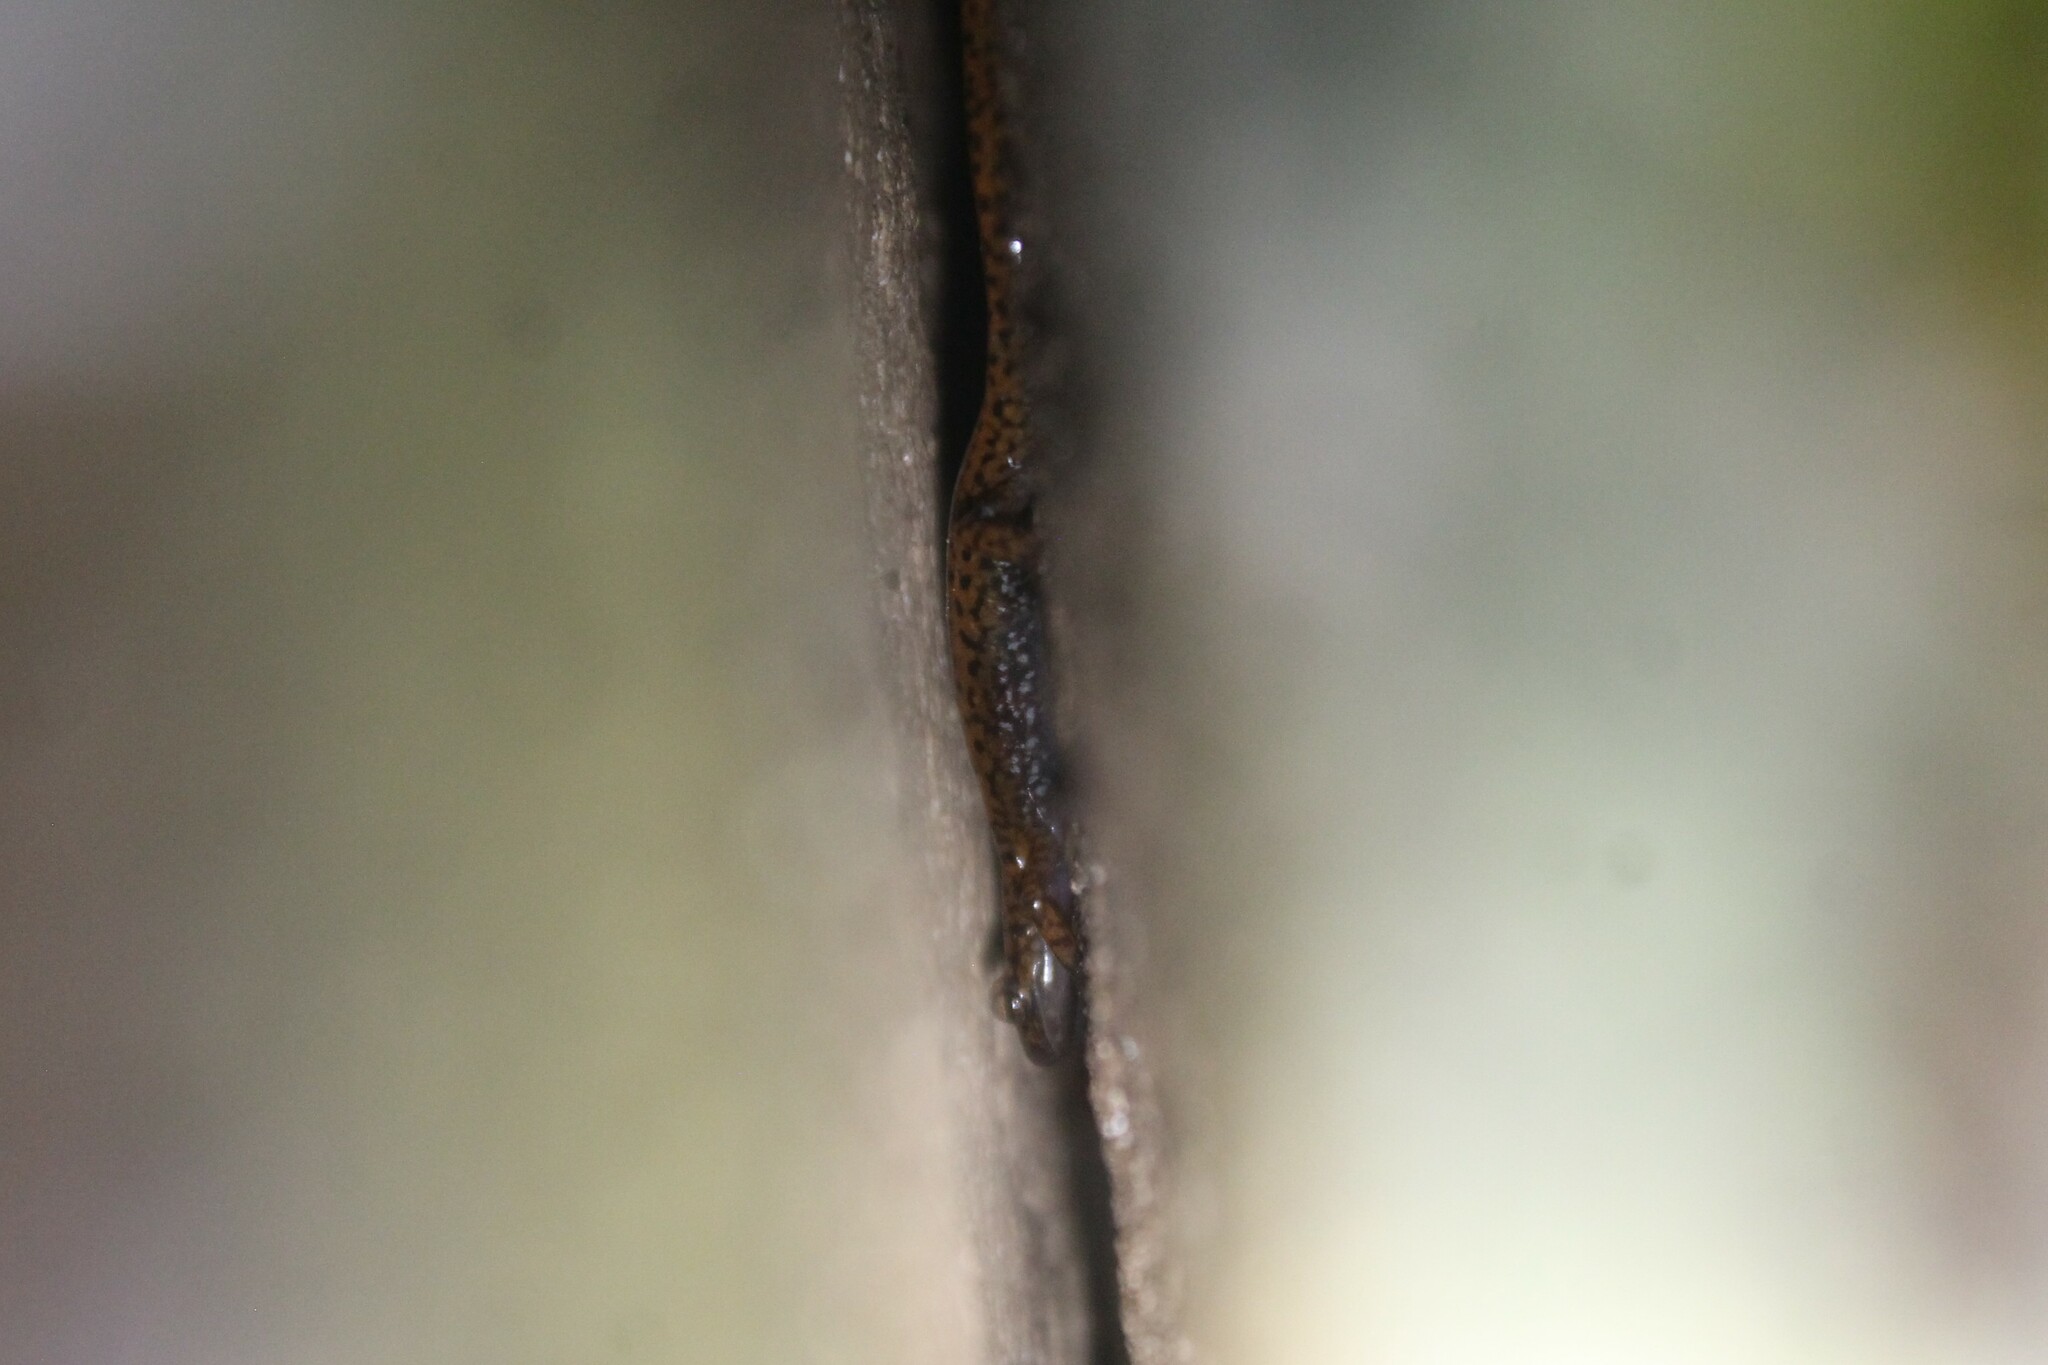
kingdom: Animalia
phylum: Chordata
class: Amphibia
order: Caudata
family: Plethodontidae
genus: Eurycea
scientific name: Eurycea lucifuga
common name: Cave salamander
